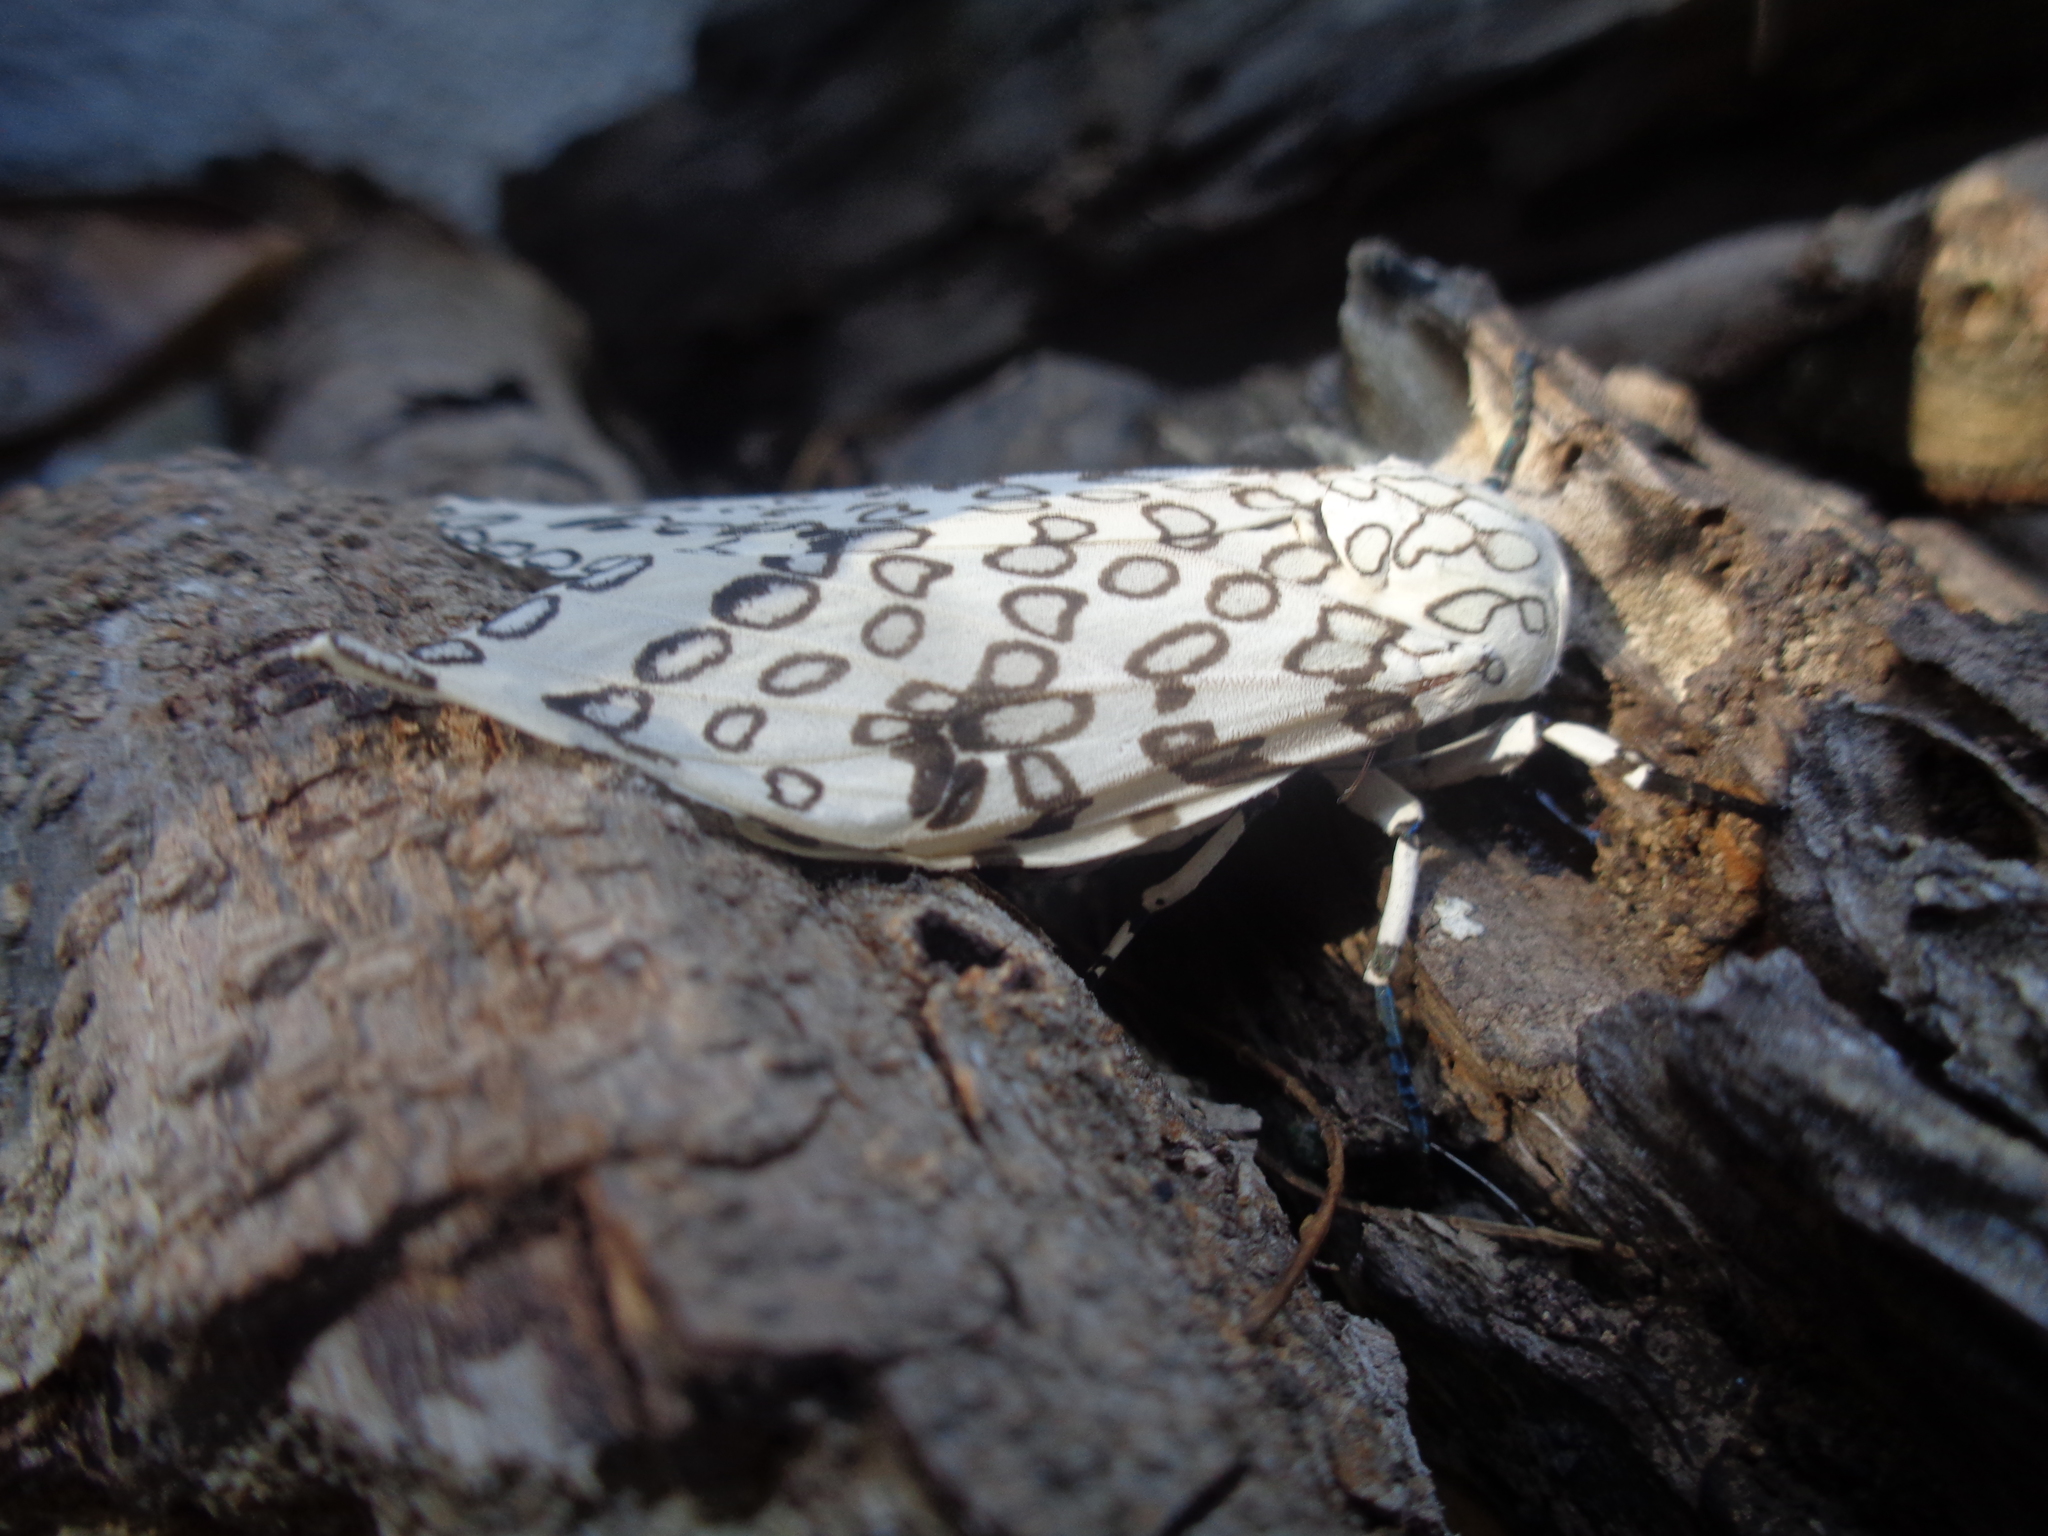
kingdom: Animalia
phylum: Arthropoda
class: Insecta
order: Lepidoptera
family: Erebidae
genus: Hypercompe
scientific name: Hypercompe scribonia
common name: Giant leopard moth
